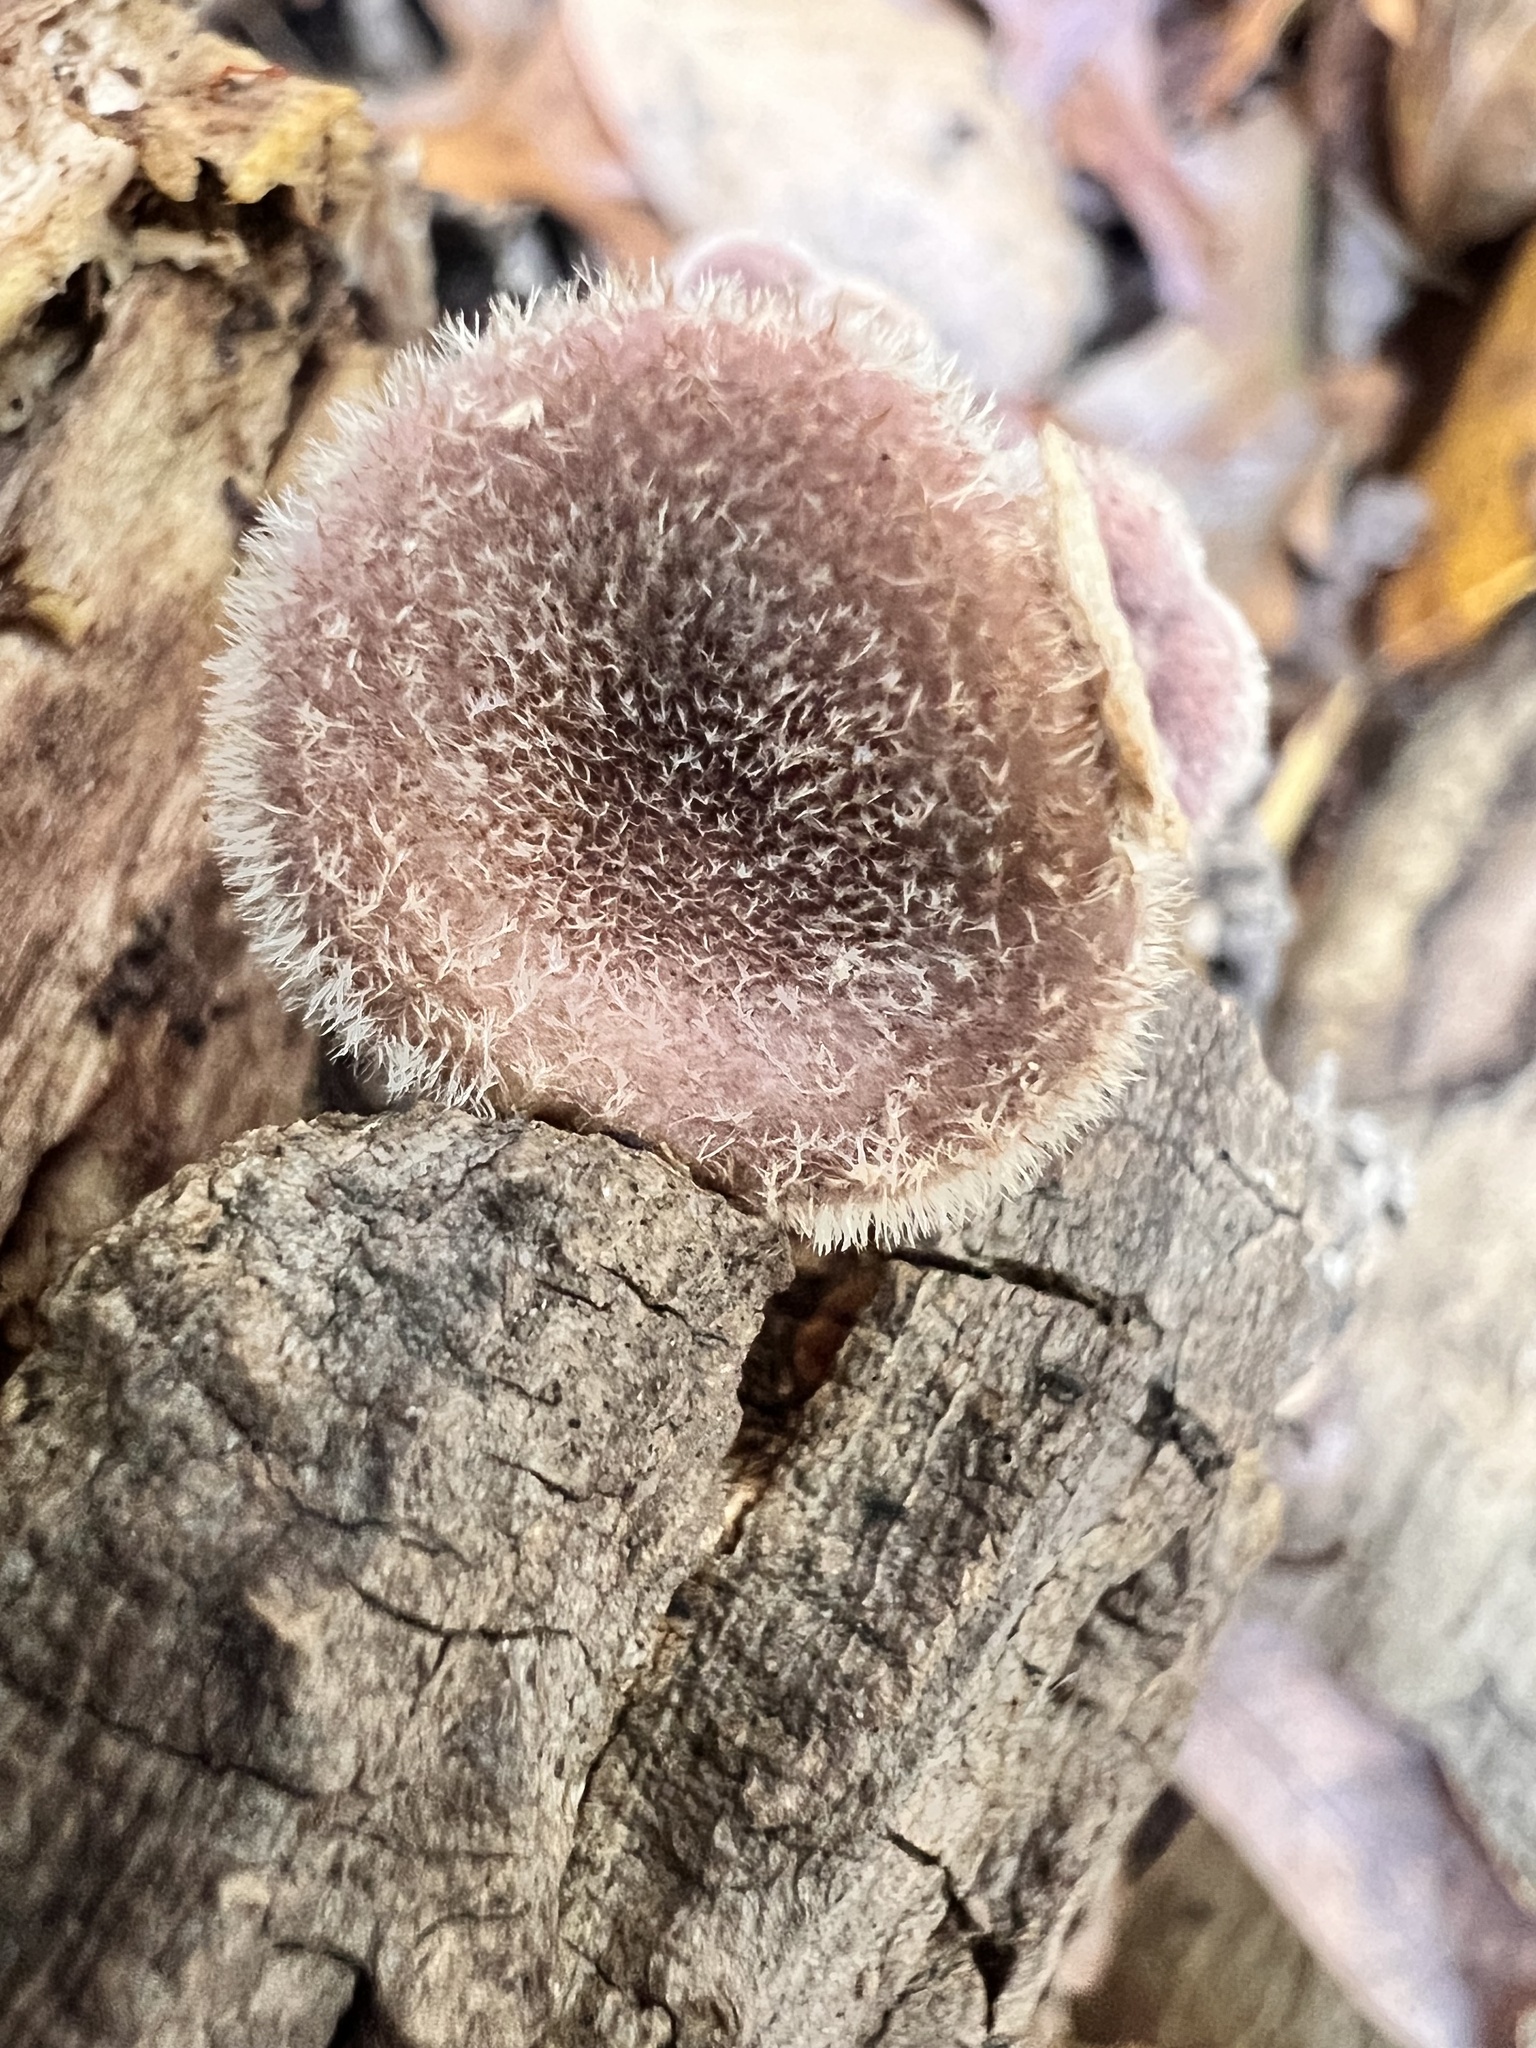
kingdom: Fungi
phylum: Basidiomycota
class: Agaricomycetes
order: Polyporales
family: Panaceae
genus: Panus
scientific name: Panus neostrigosus
